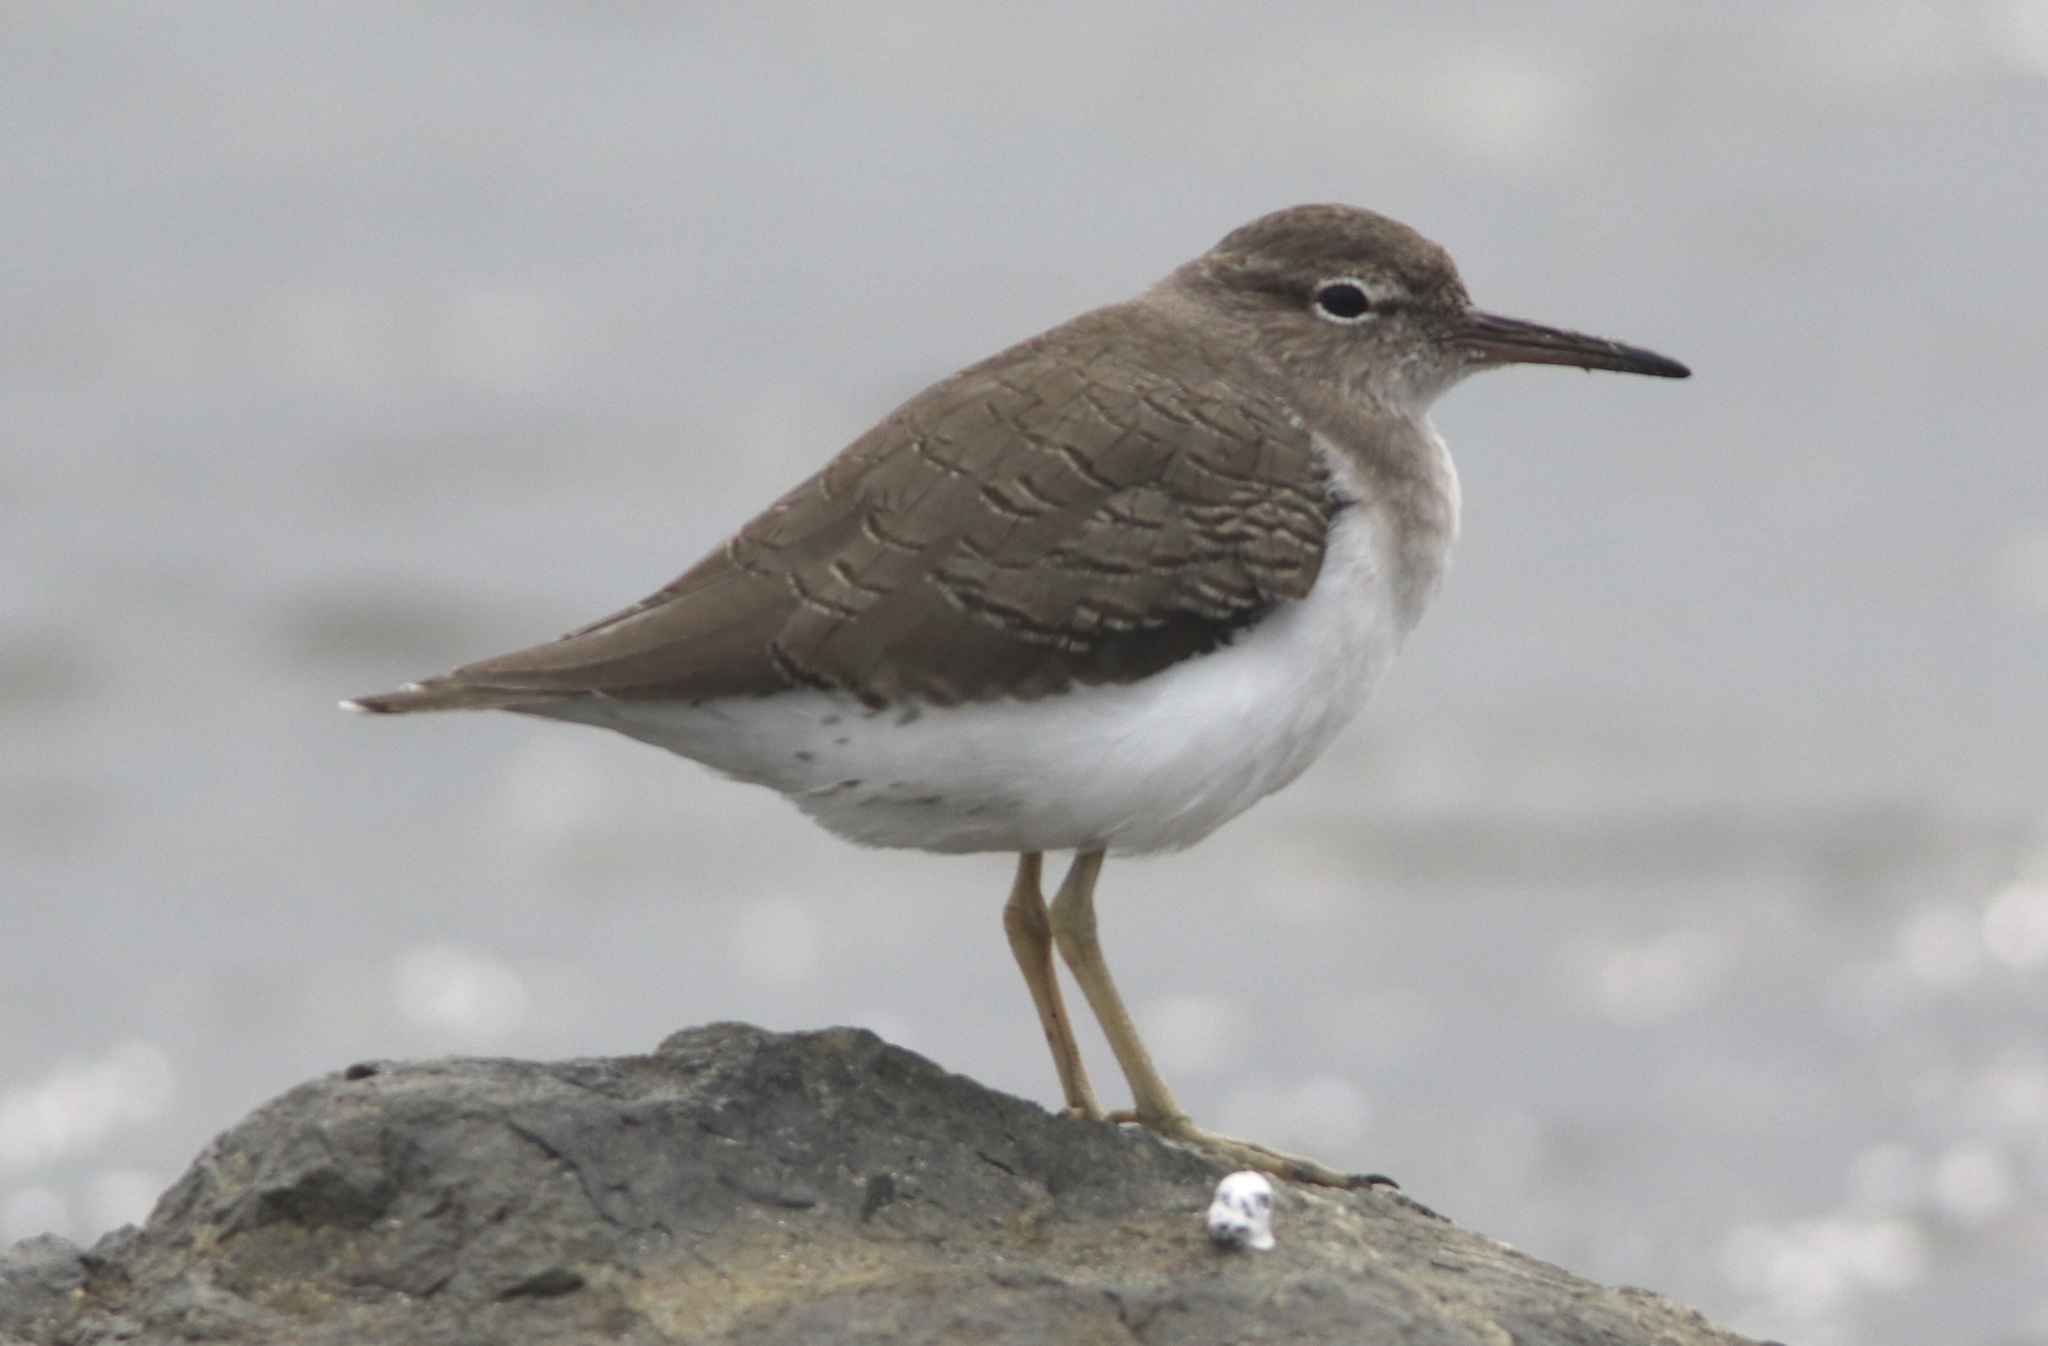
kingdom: Animalia
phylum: Chordata
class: Aves
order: Charadriiformes
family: Scolopacidae
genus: Actitis
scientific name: Actitis macularius
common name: Spotted sandpiper
